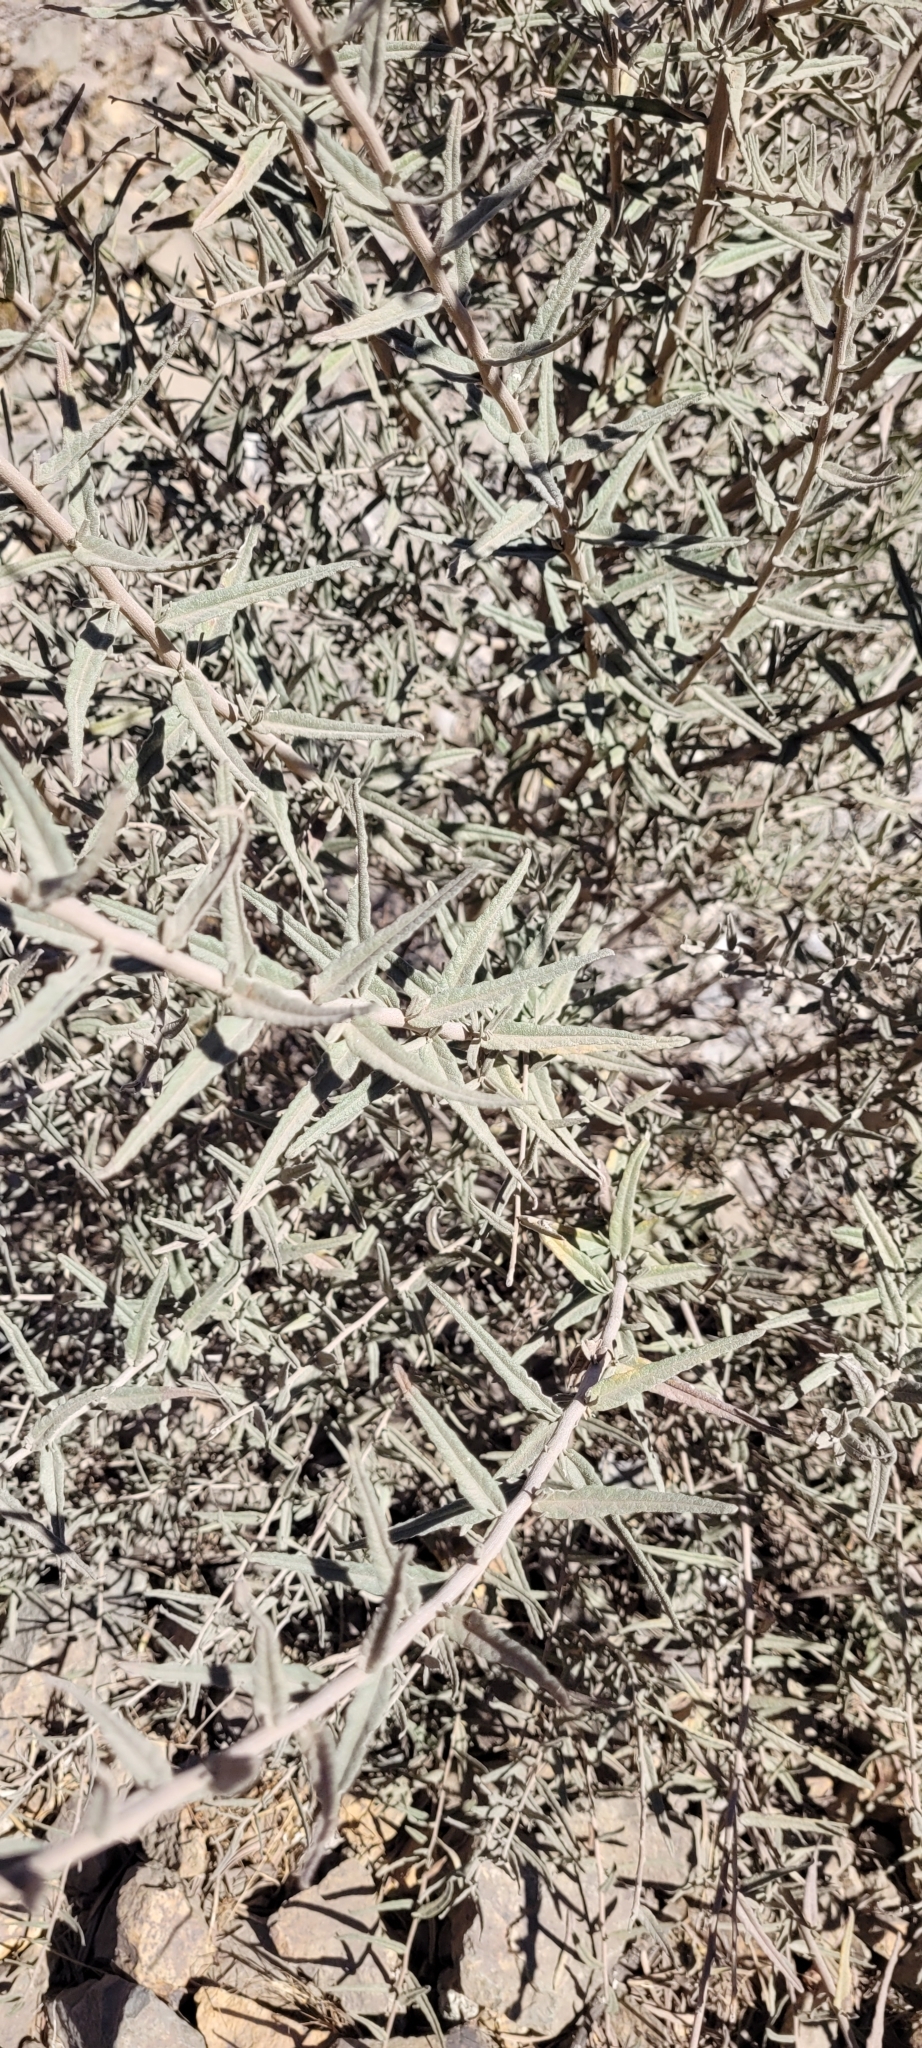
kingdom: Plantae
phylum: Tracheophyta
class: Magnoliopsida
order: Boraginales
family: Cordiaceae
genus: Cordia
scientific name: Cordia decandra
